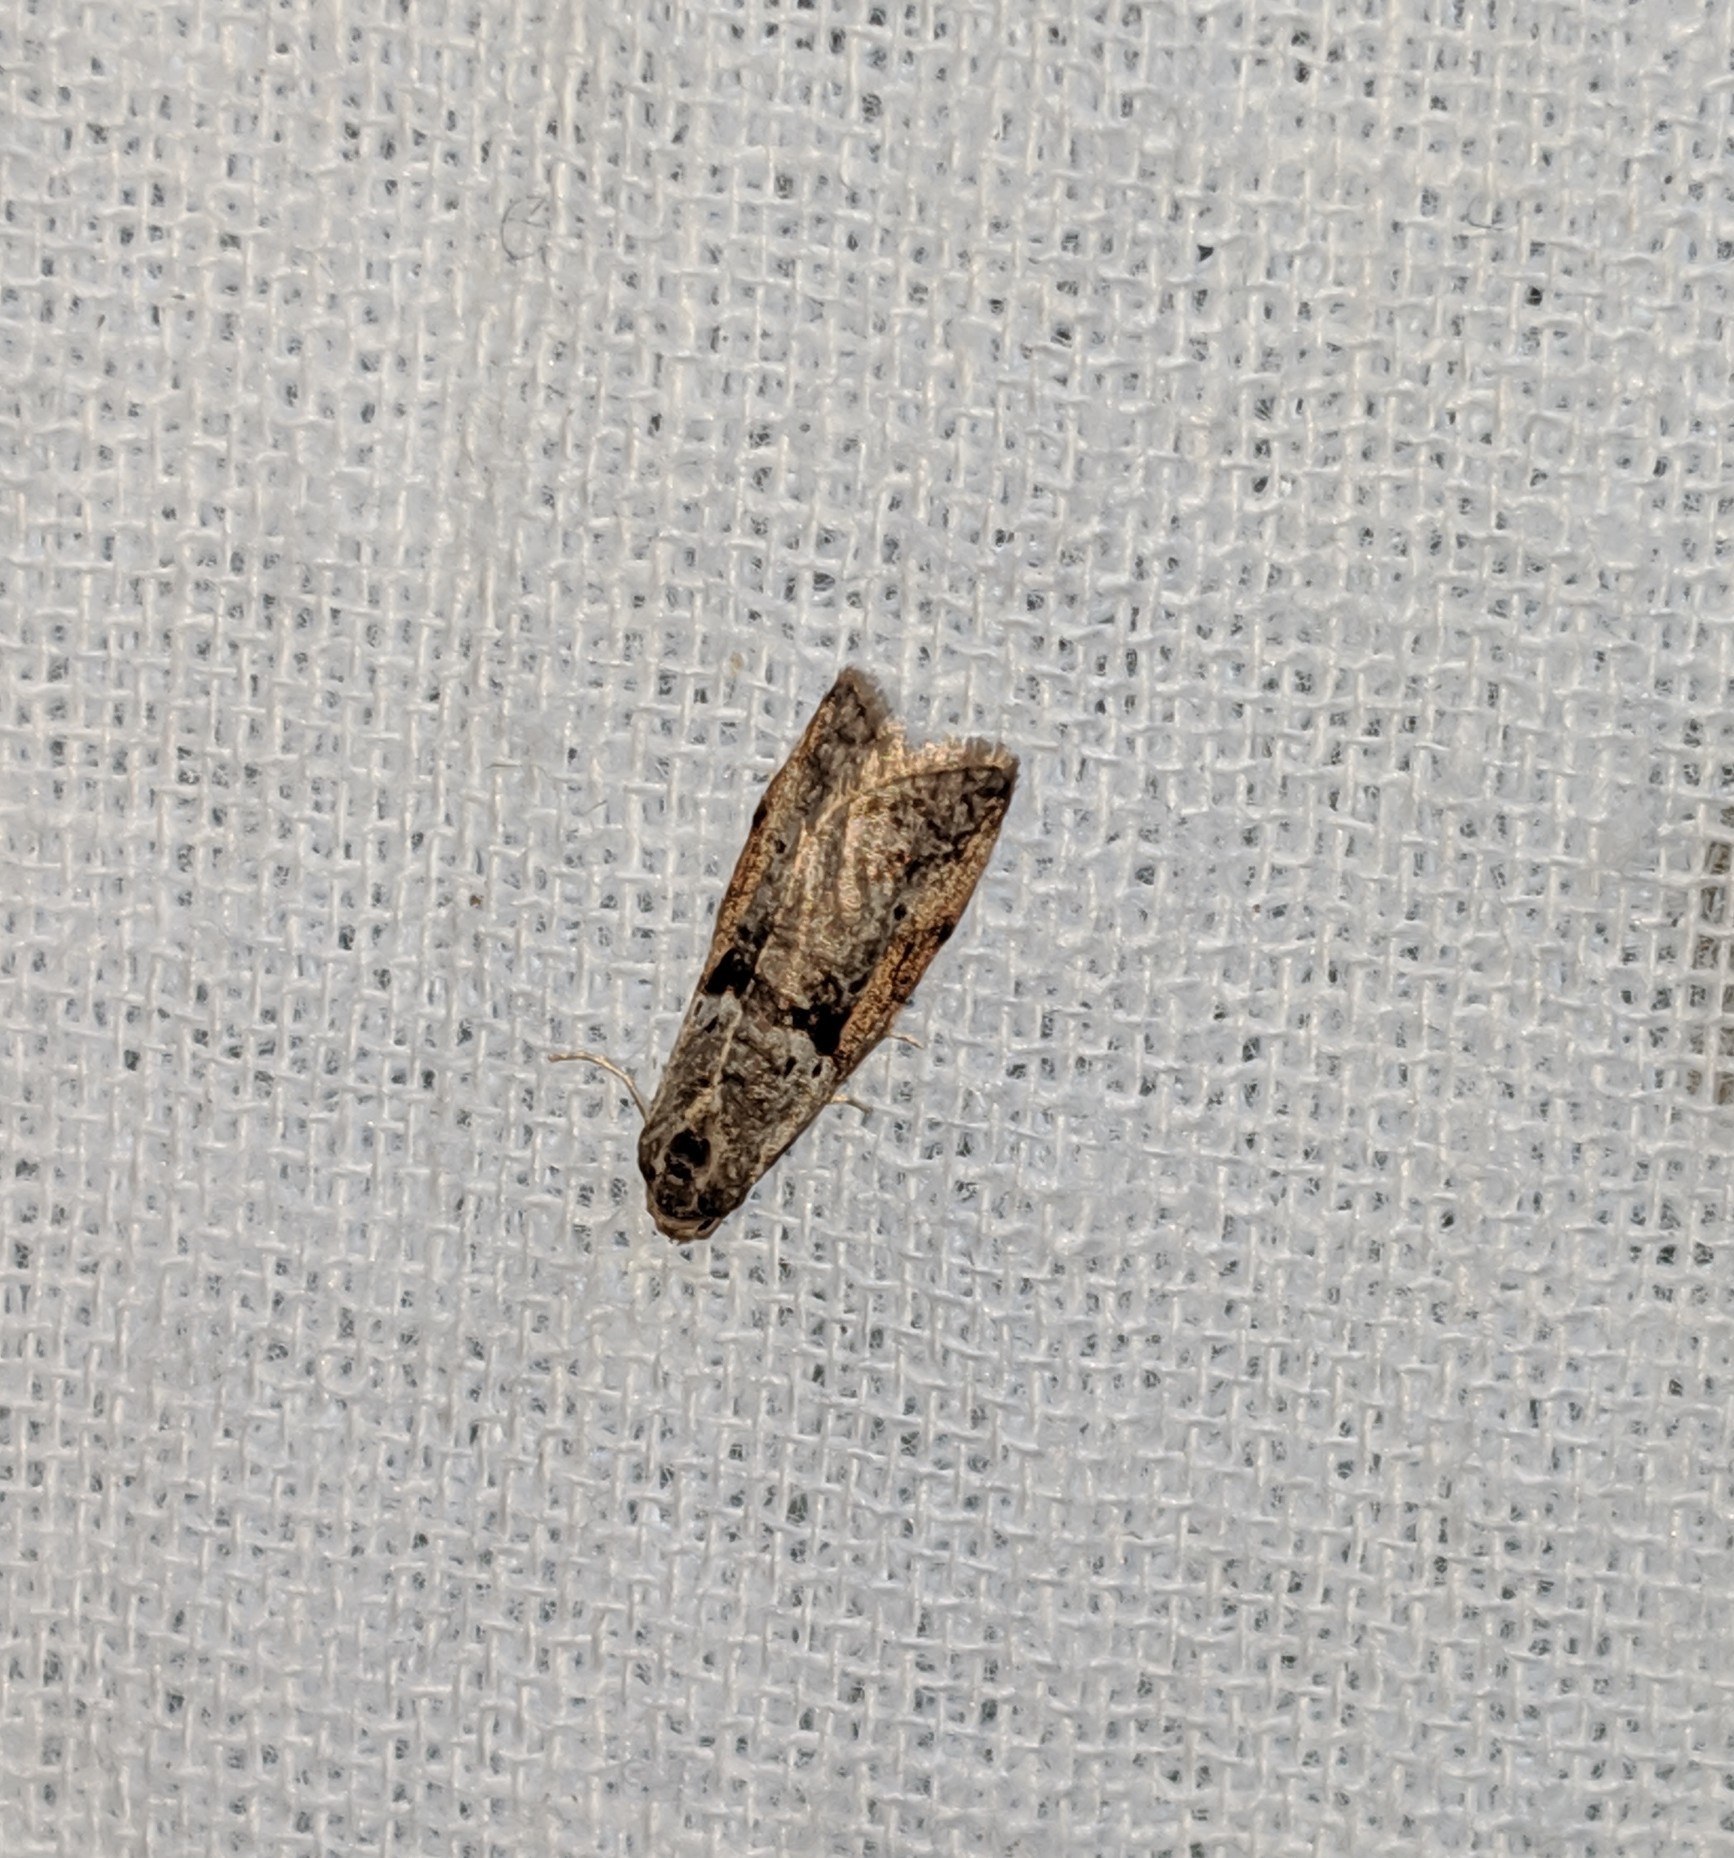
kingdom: Animalia
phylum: Arthropoda
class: Insecta
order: Lepidoptera
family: Copromorphidae
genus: Lotisma
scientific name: Lotisma trigonana
